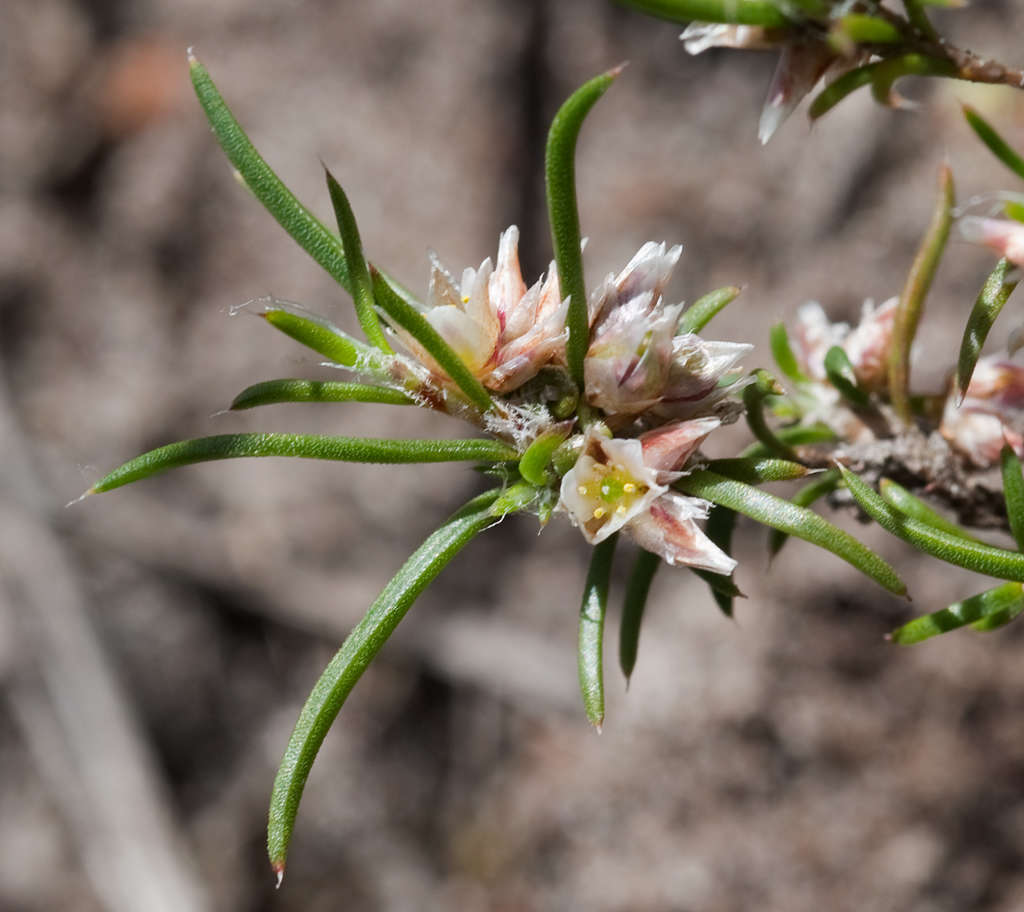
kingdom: Plantae
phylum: Tracheophyta
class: Liliopsida
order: Asparagales
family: Asparagaceae
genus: Laxmannia
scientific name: Laxmannia orientalis
